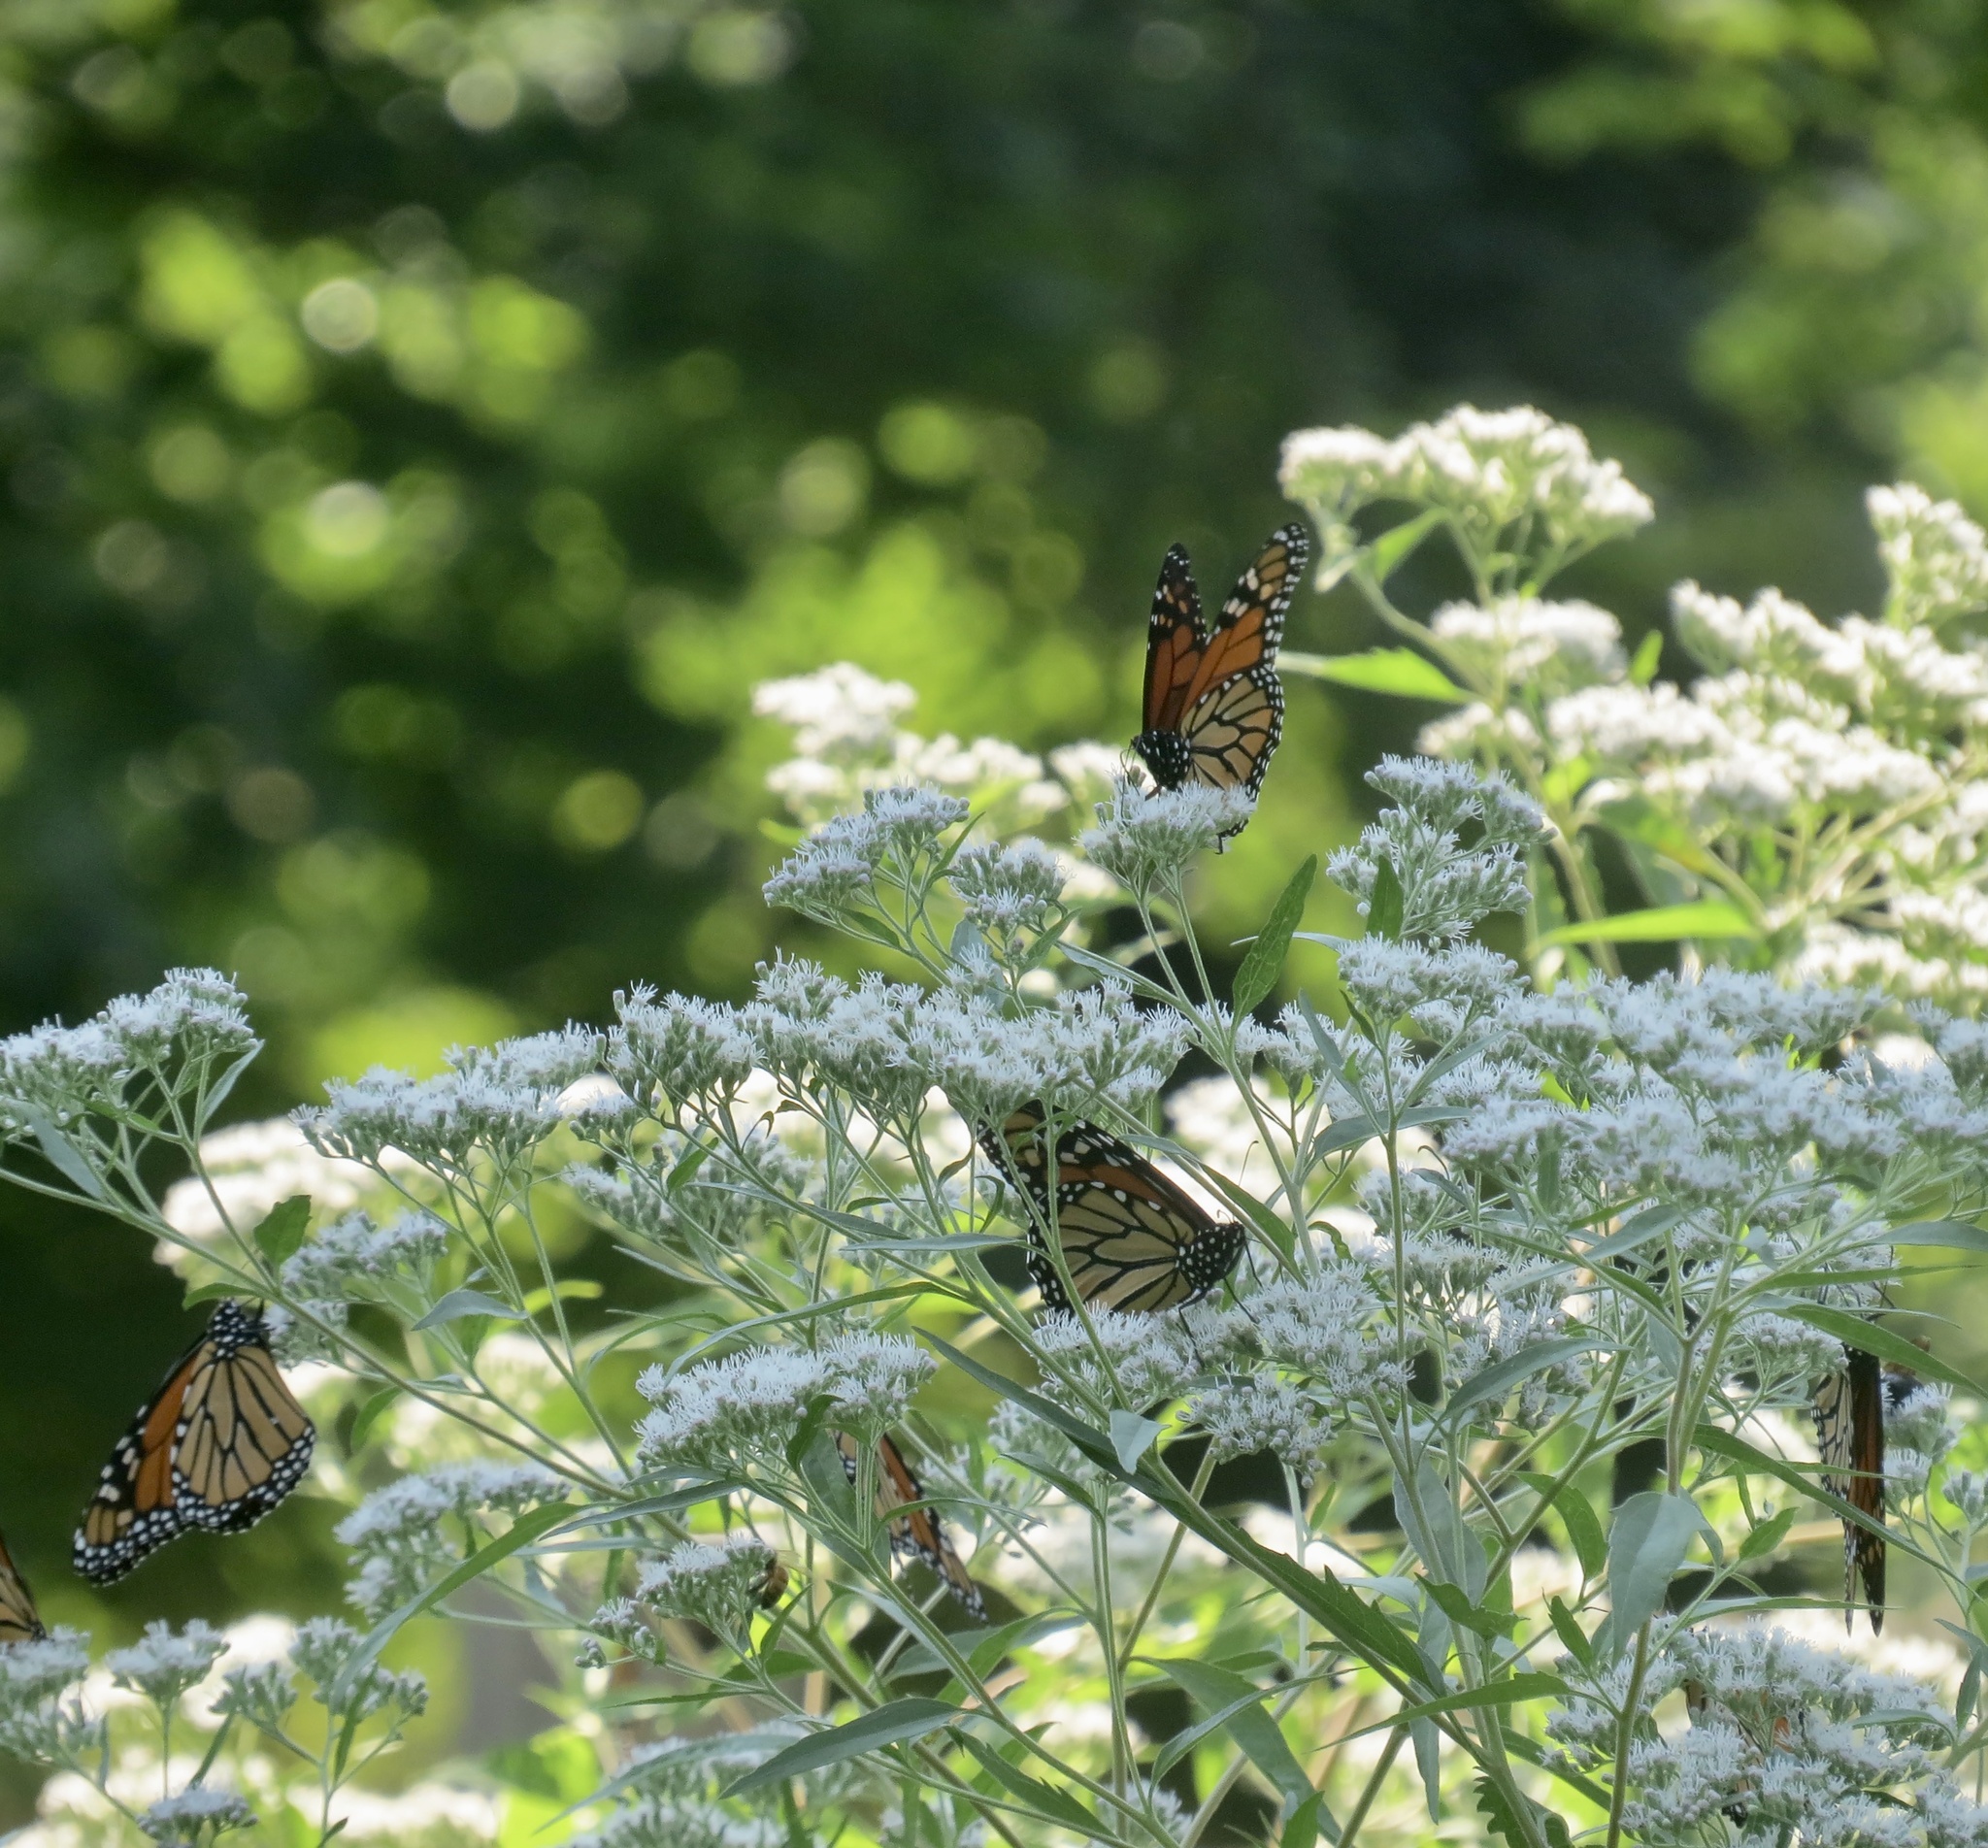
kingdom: Animalia
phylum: Arthropoda
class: Insecta
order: Lepidoptera
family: Nymphalidae
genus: Danaus
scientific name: Danaus plexippus
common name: Monarch
